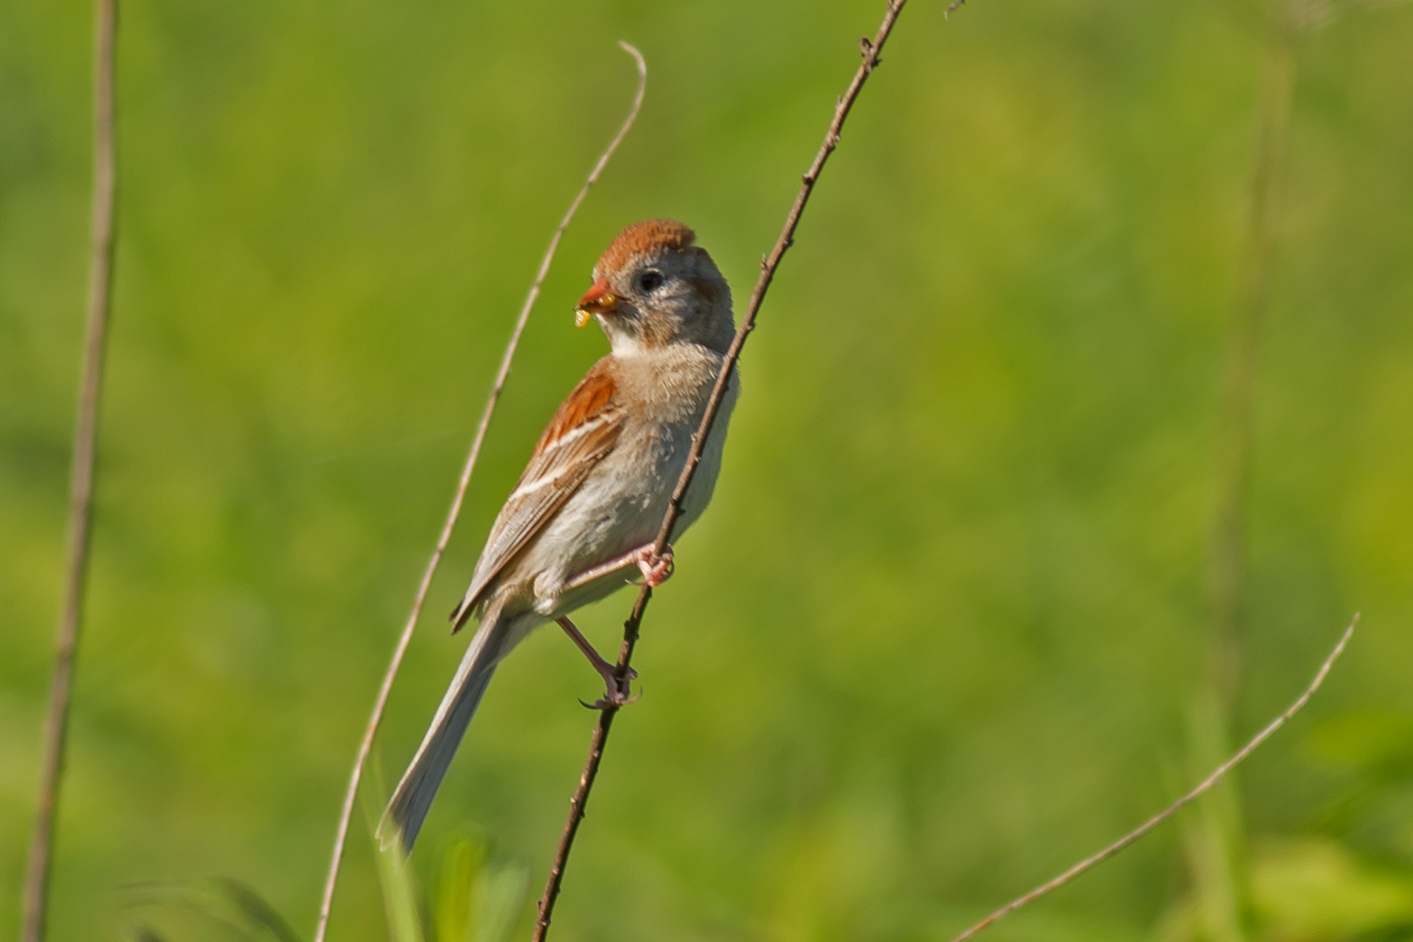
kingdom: Animalia
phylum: Chordata
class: Aves
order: Passeriformes
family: Passerellidae
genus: Spizella
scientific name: Spizella pusilla
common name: Field sparrow
